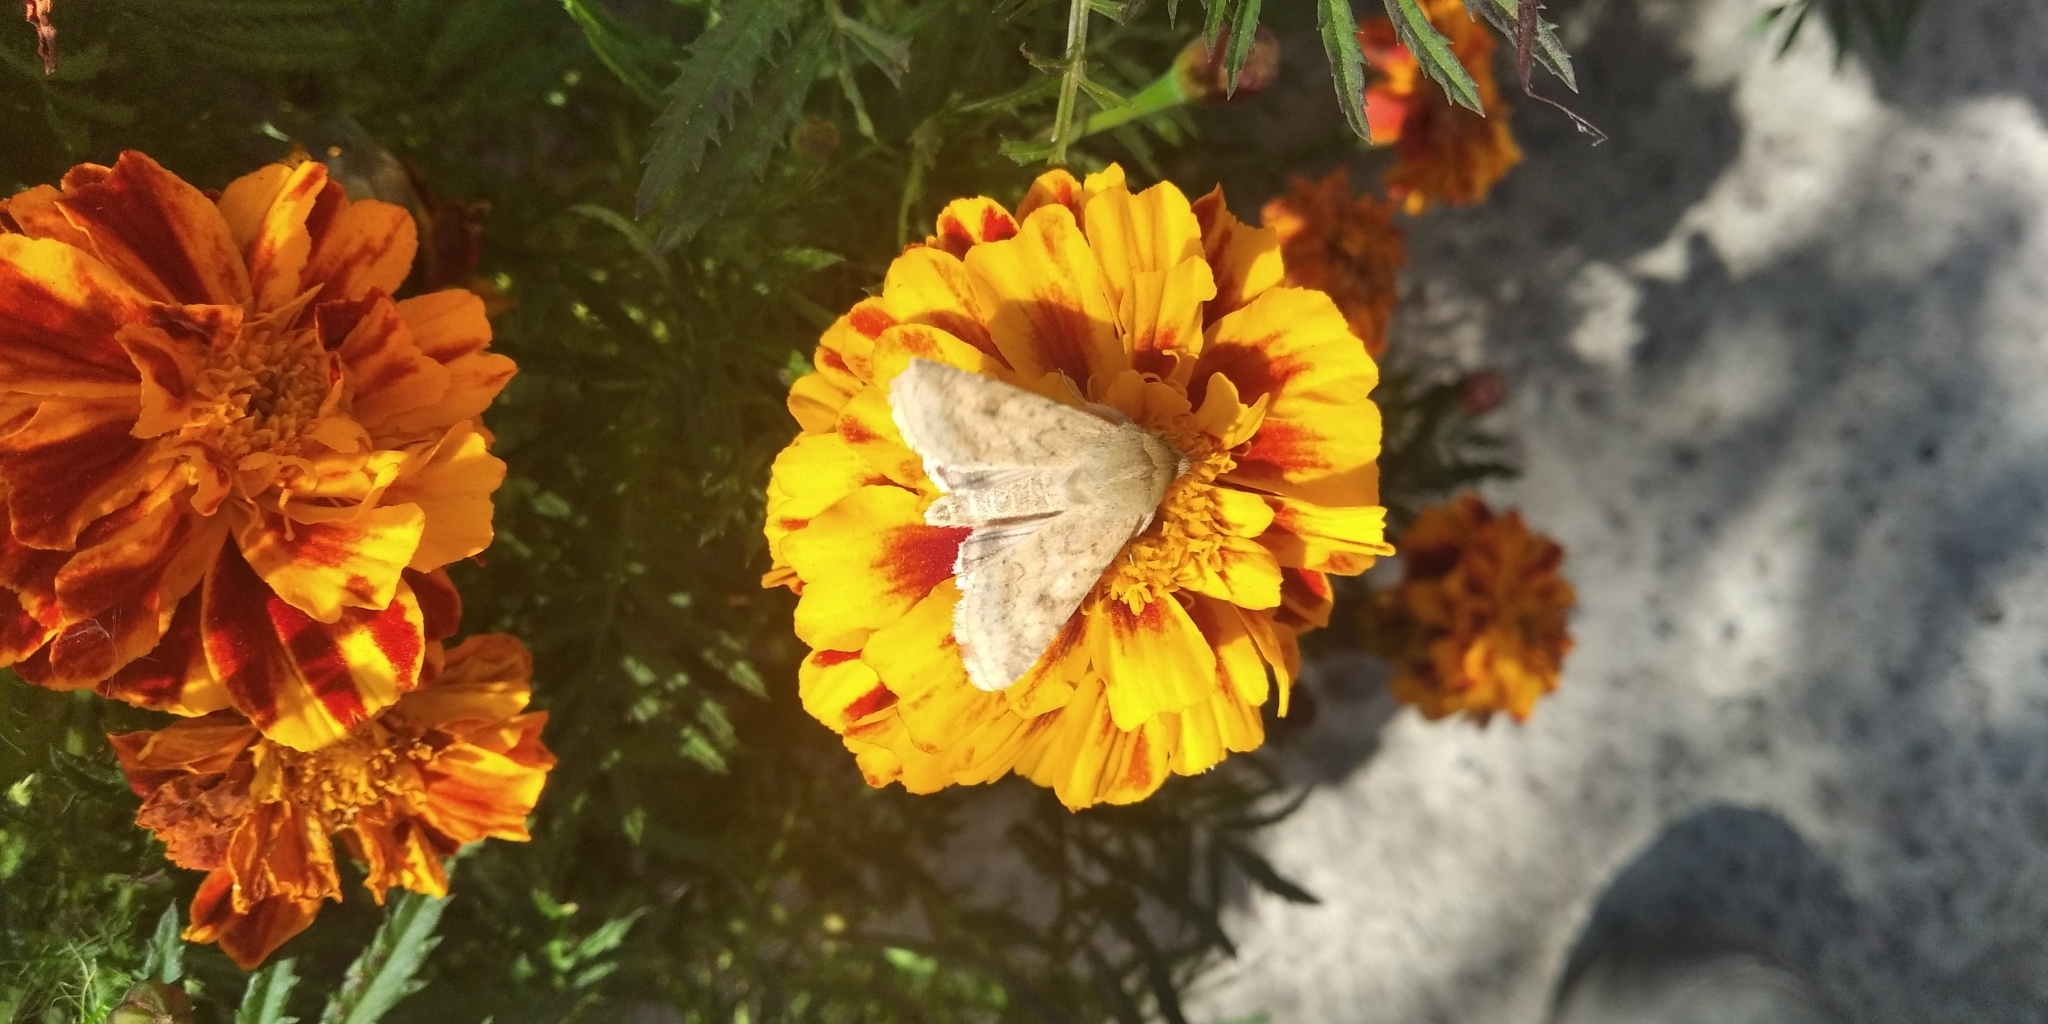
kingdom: Animalia
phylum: Arthropoda
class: Insecta
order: Lepidoptera
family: Noctuidae
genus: Helicoverpa
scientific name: Helicoverpa armigera
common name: Cotton bollworm
